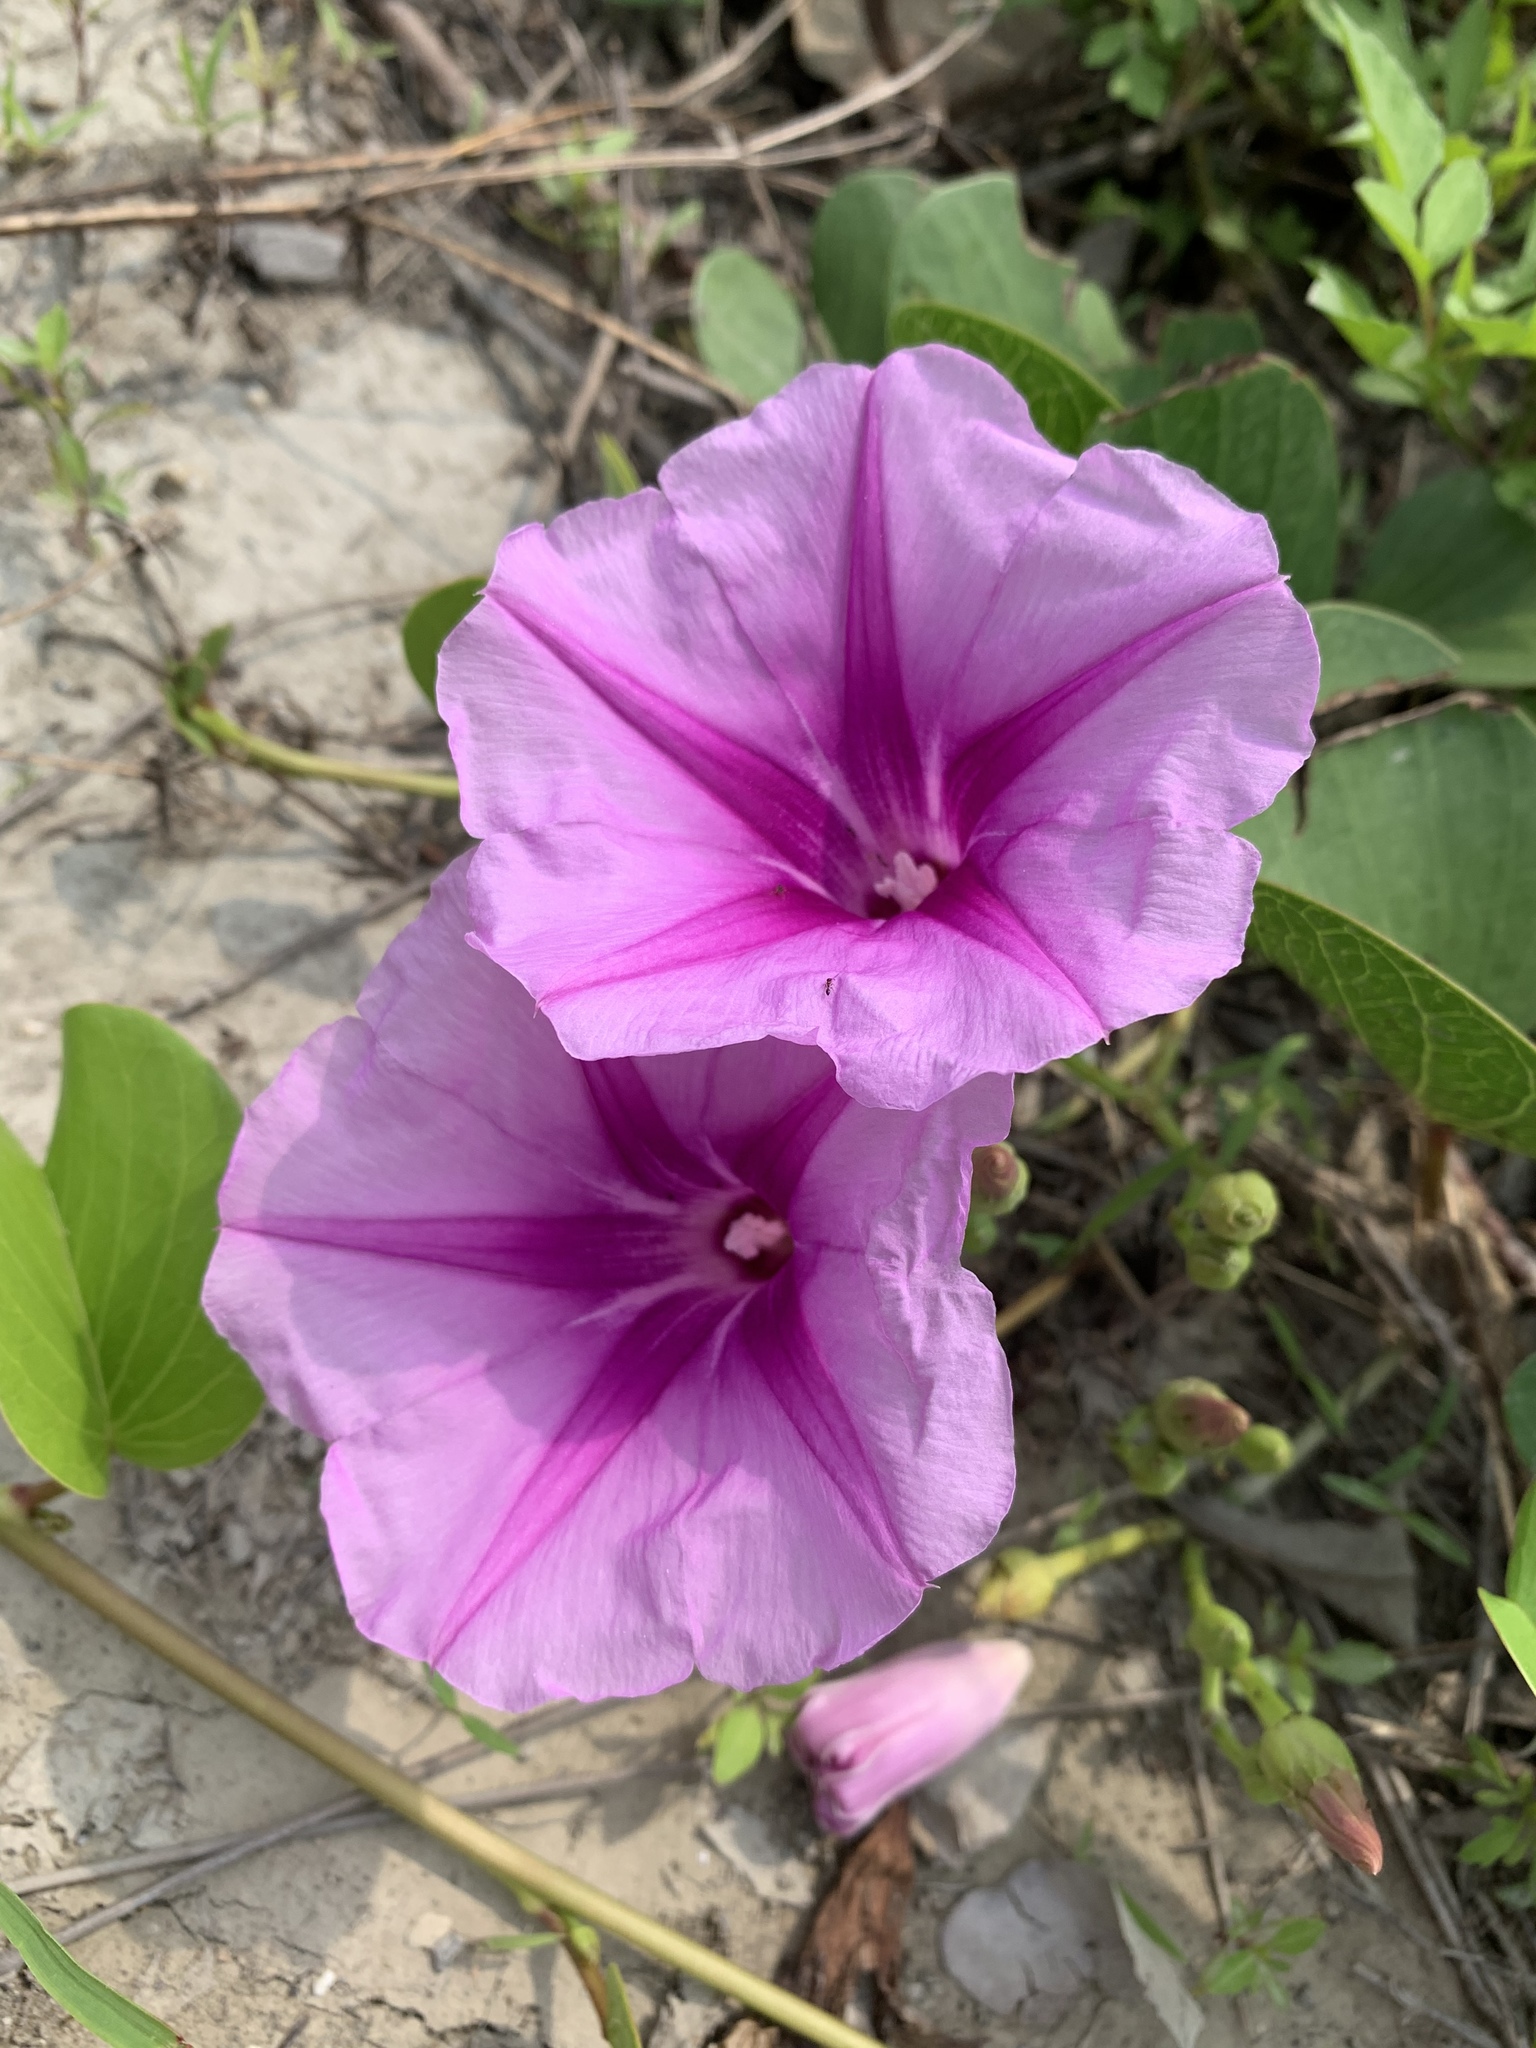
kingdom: Plantae
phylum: Tracheophyta
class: Magnoliopsida
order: Solanales
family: Convolvulaceae
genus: Ipomoea
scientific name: Ipomoea pes-caprae
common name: Beach morning glory
